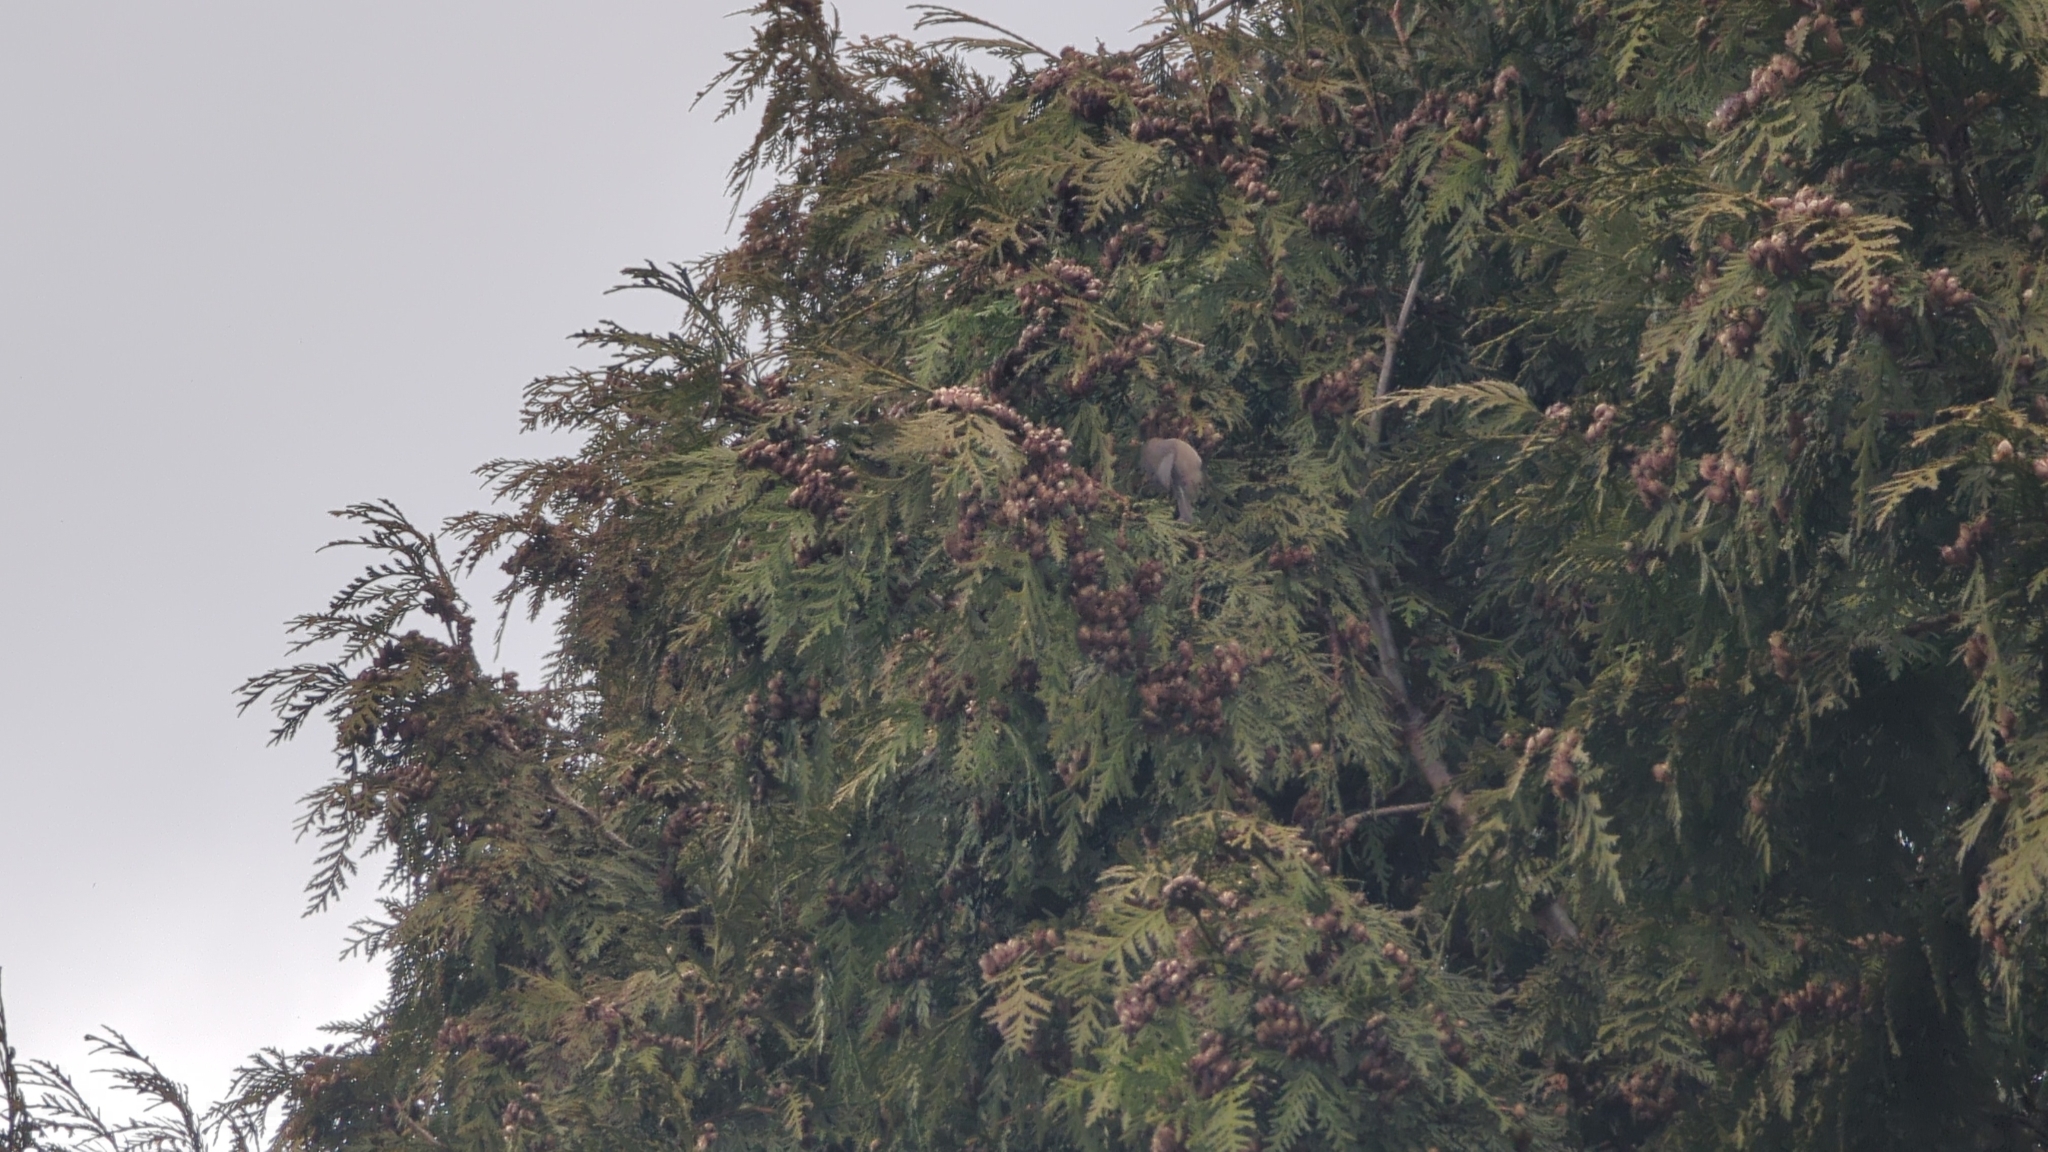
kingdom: Animalia
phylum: Chordata
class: Aves
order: Passeriformes
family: Aegithalidae
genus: Psaltriparus
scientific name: Psaltriparus minimus
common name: American bushtit
